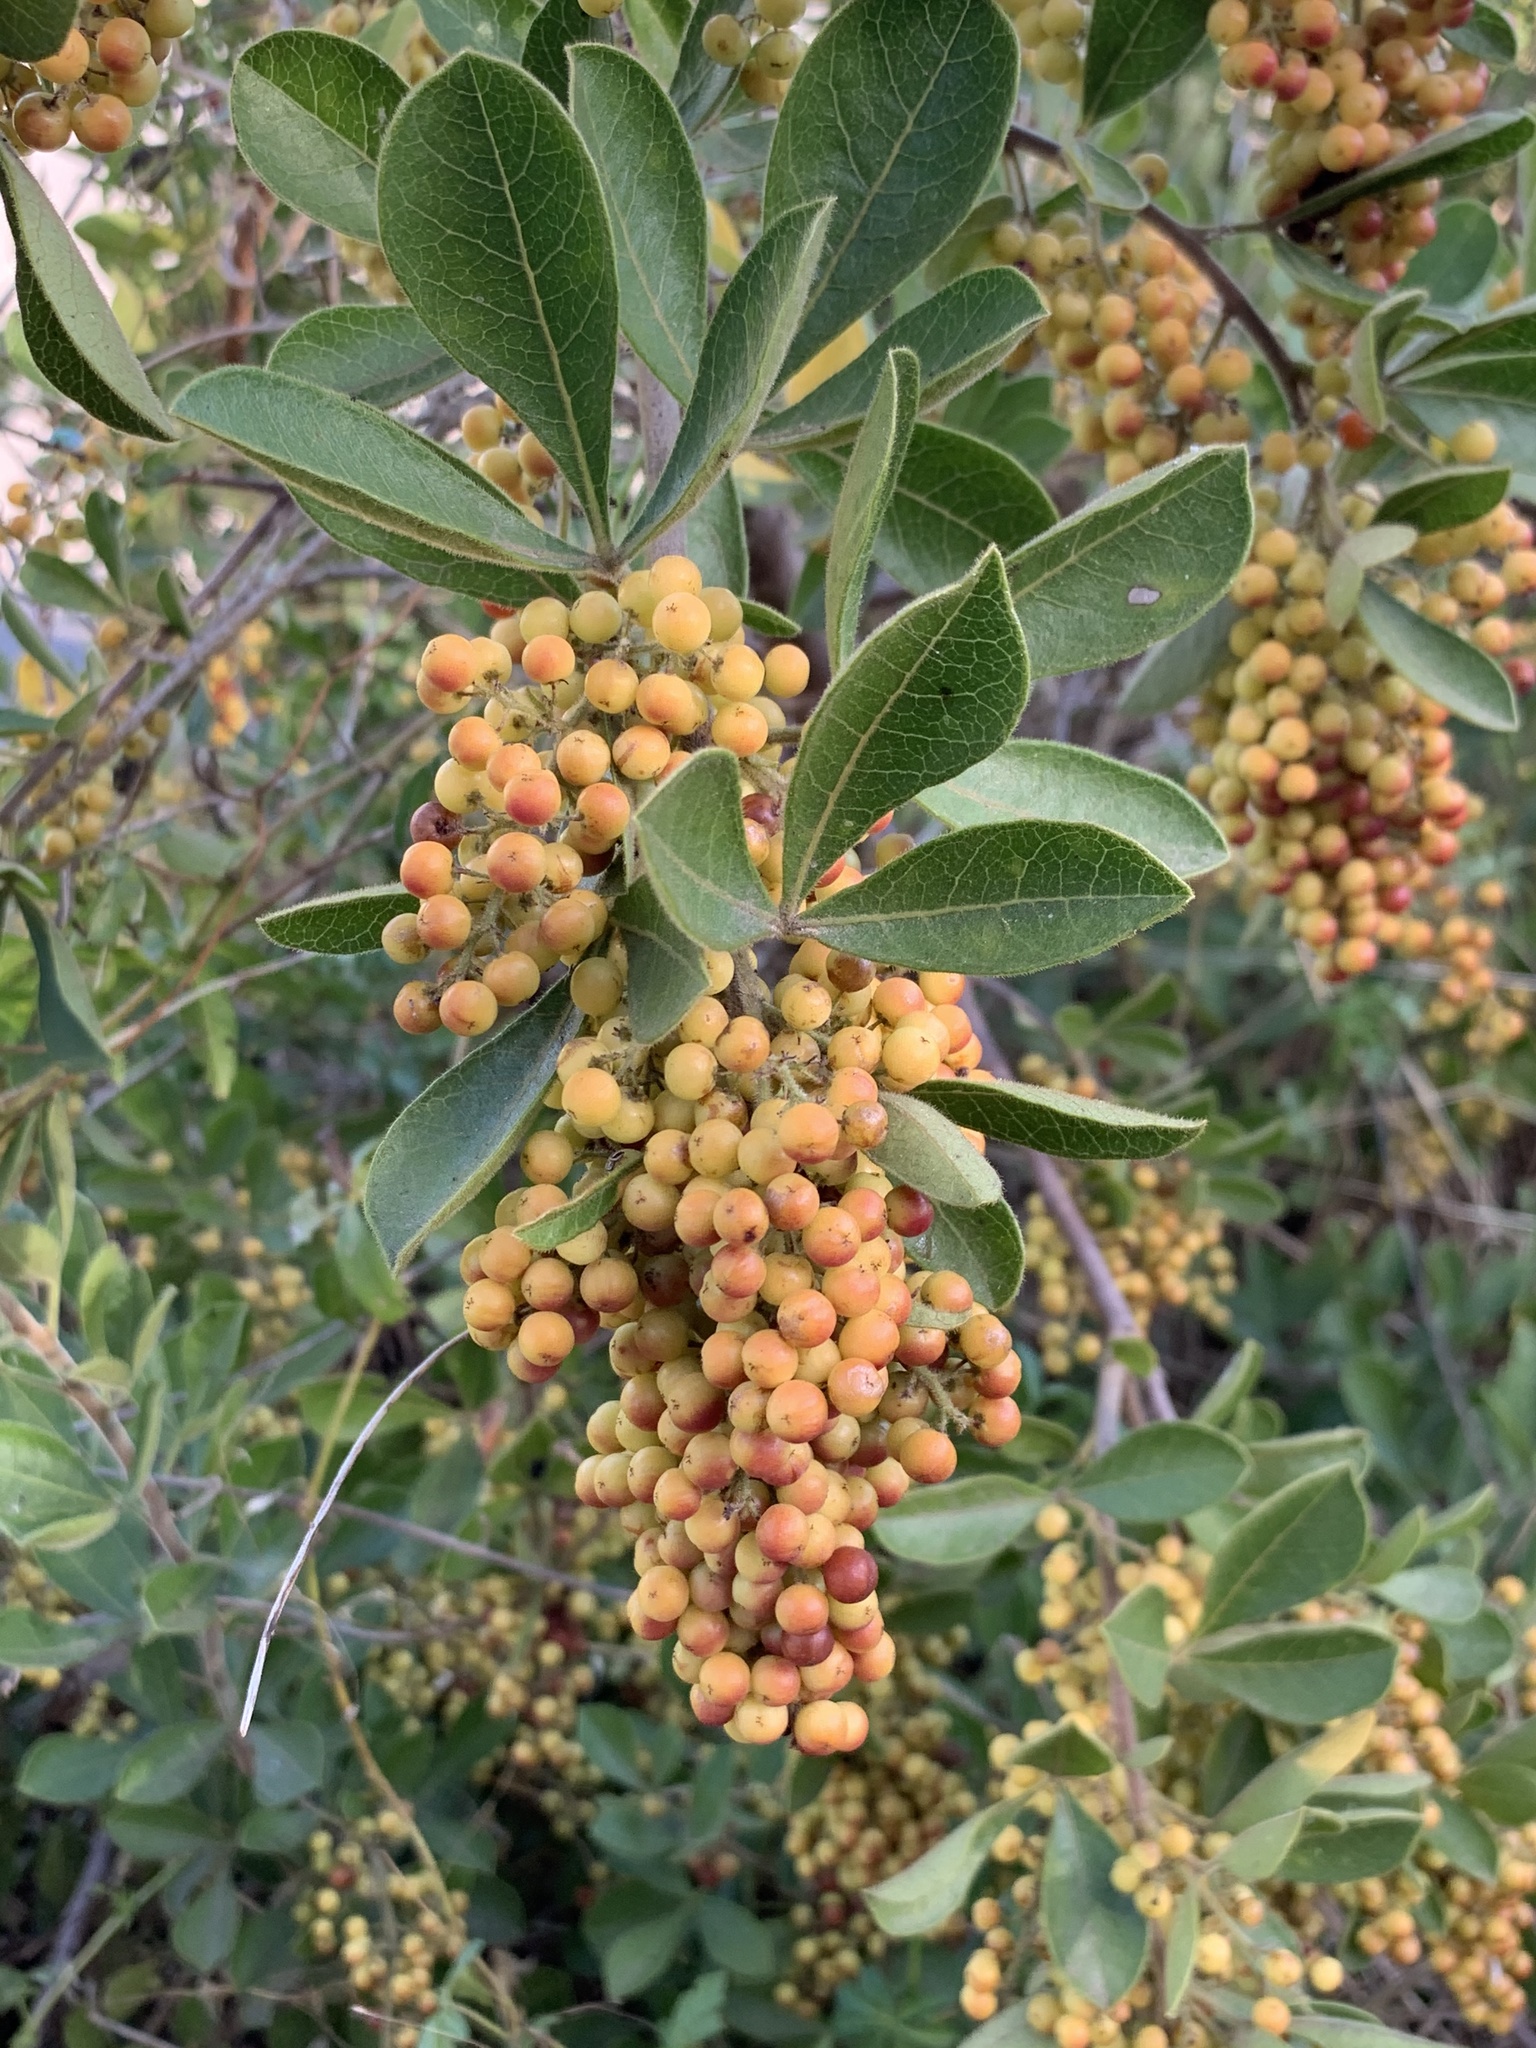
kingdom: Plantae
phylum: Tracheophyta
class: Magnoliopsida
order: Sapindales
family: Anacardiaceae
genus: Searsia
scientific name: Searsia laevigata
